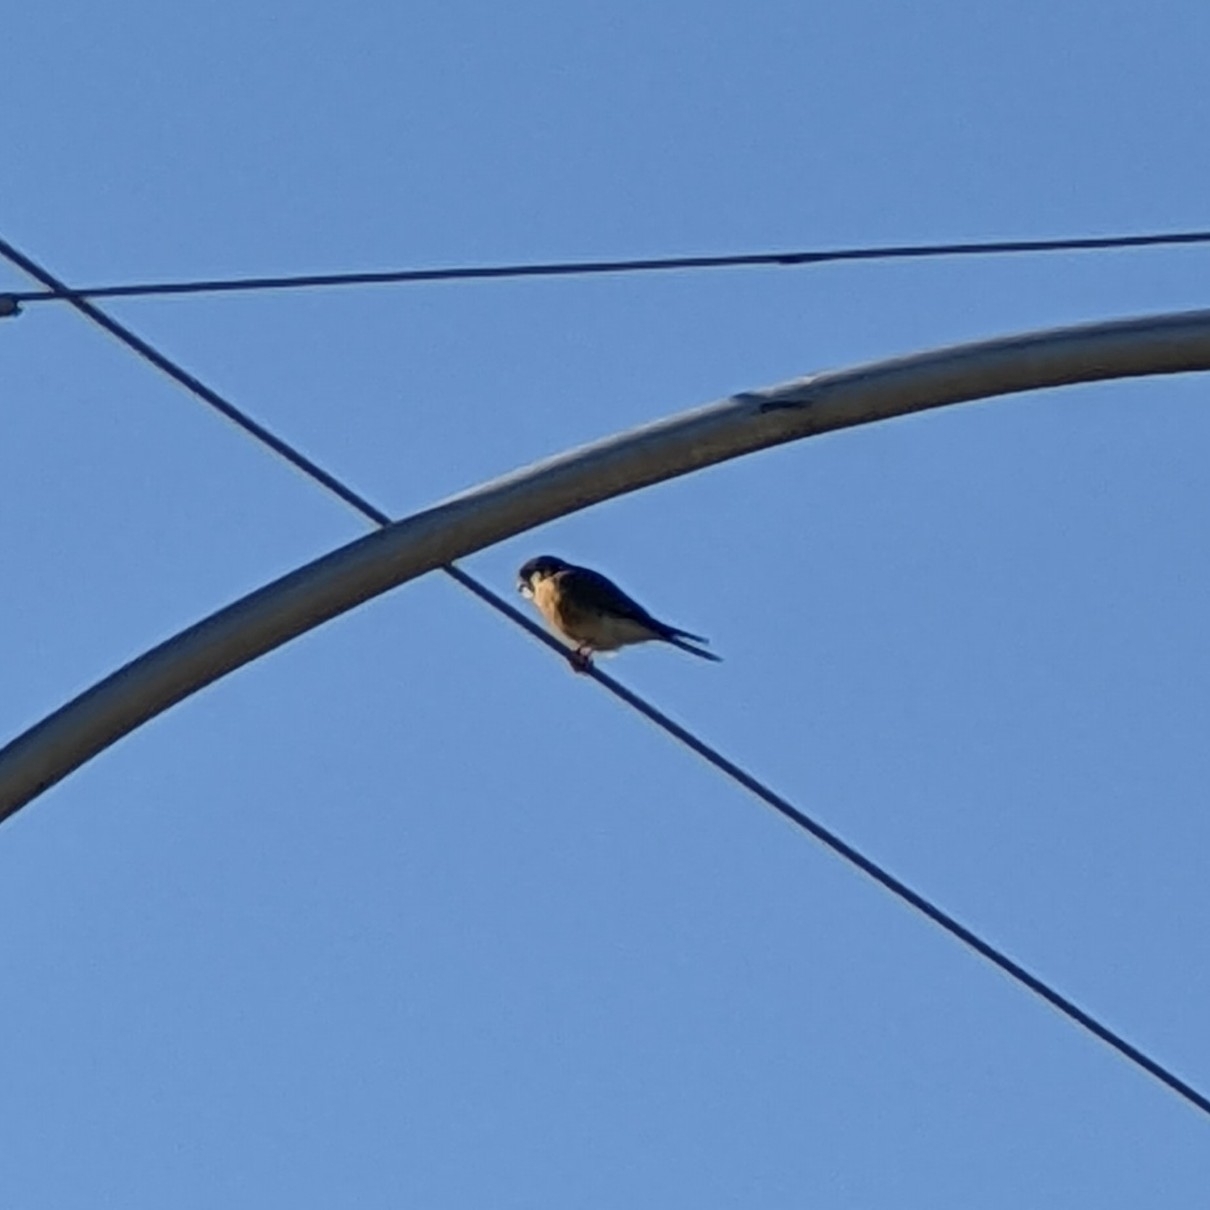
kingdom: Animalia
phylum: Chordata
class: Aves
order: Falconiformes
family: Falconidae
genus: Falco
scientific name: Falco sparverius
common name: American kestrel
